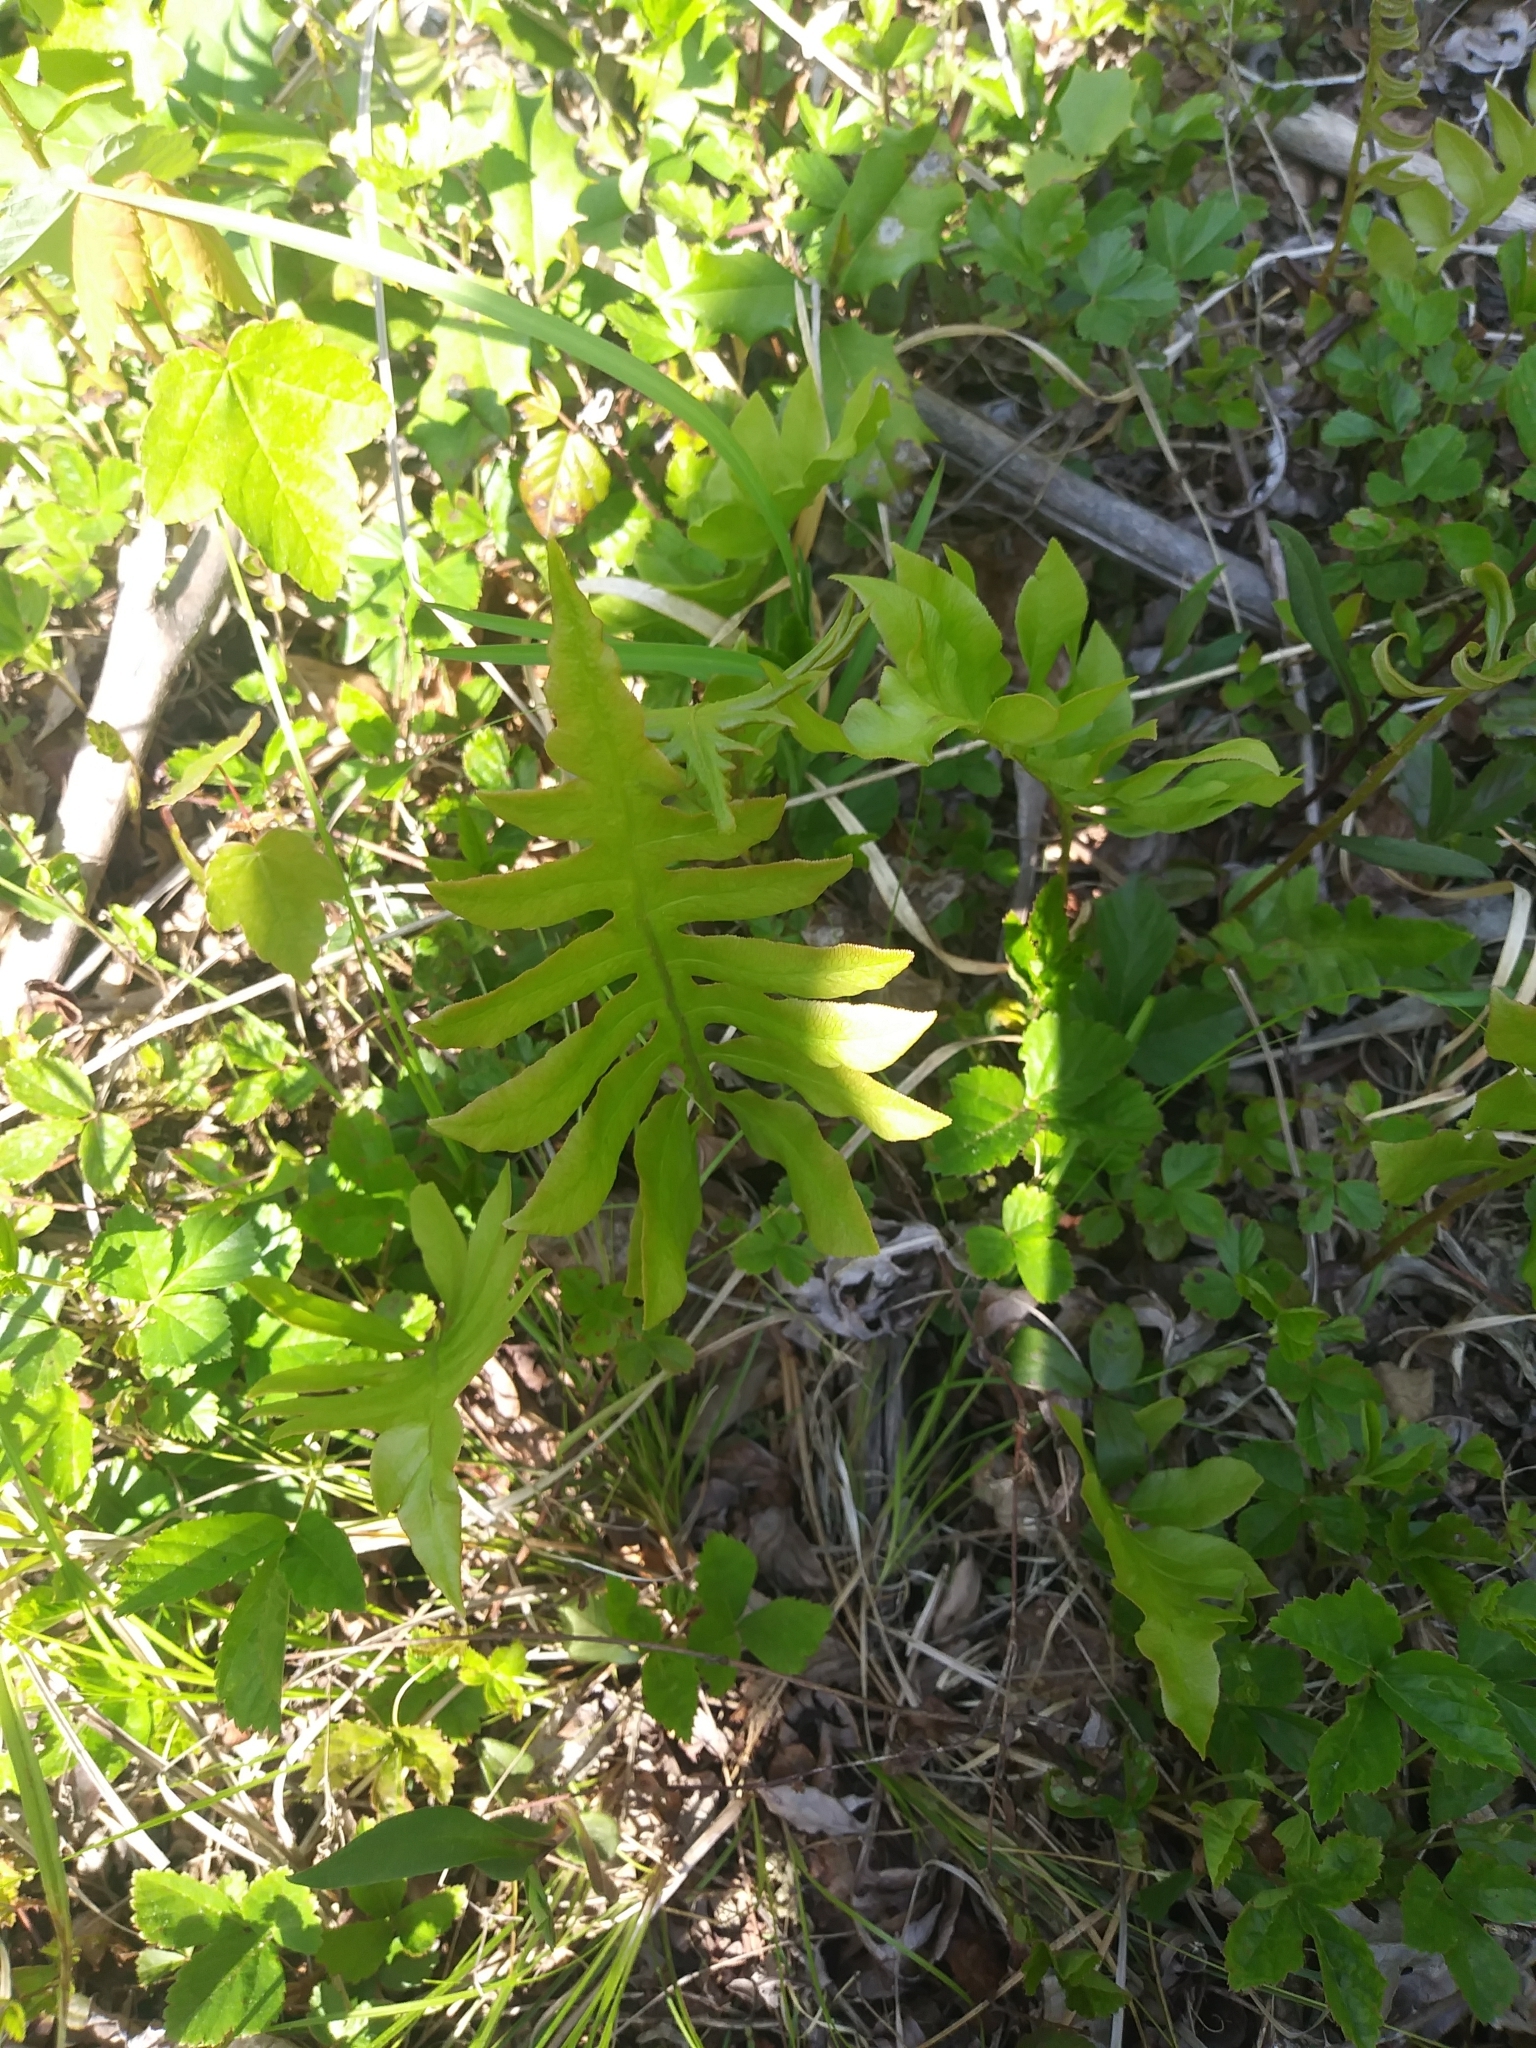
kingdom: Plantae
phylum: Tracheophyta
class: Polypodiopsida
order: Polypodiales
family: Blechnaceae
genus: Lorinseria
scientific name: Lorinseria areolata
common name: Dwarf chain fern
